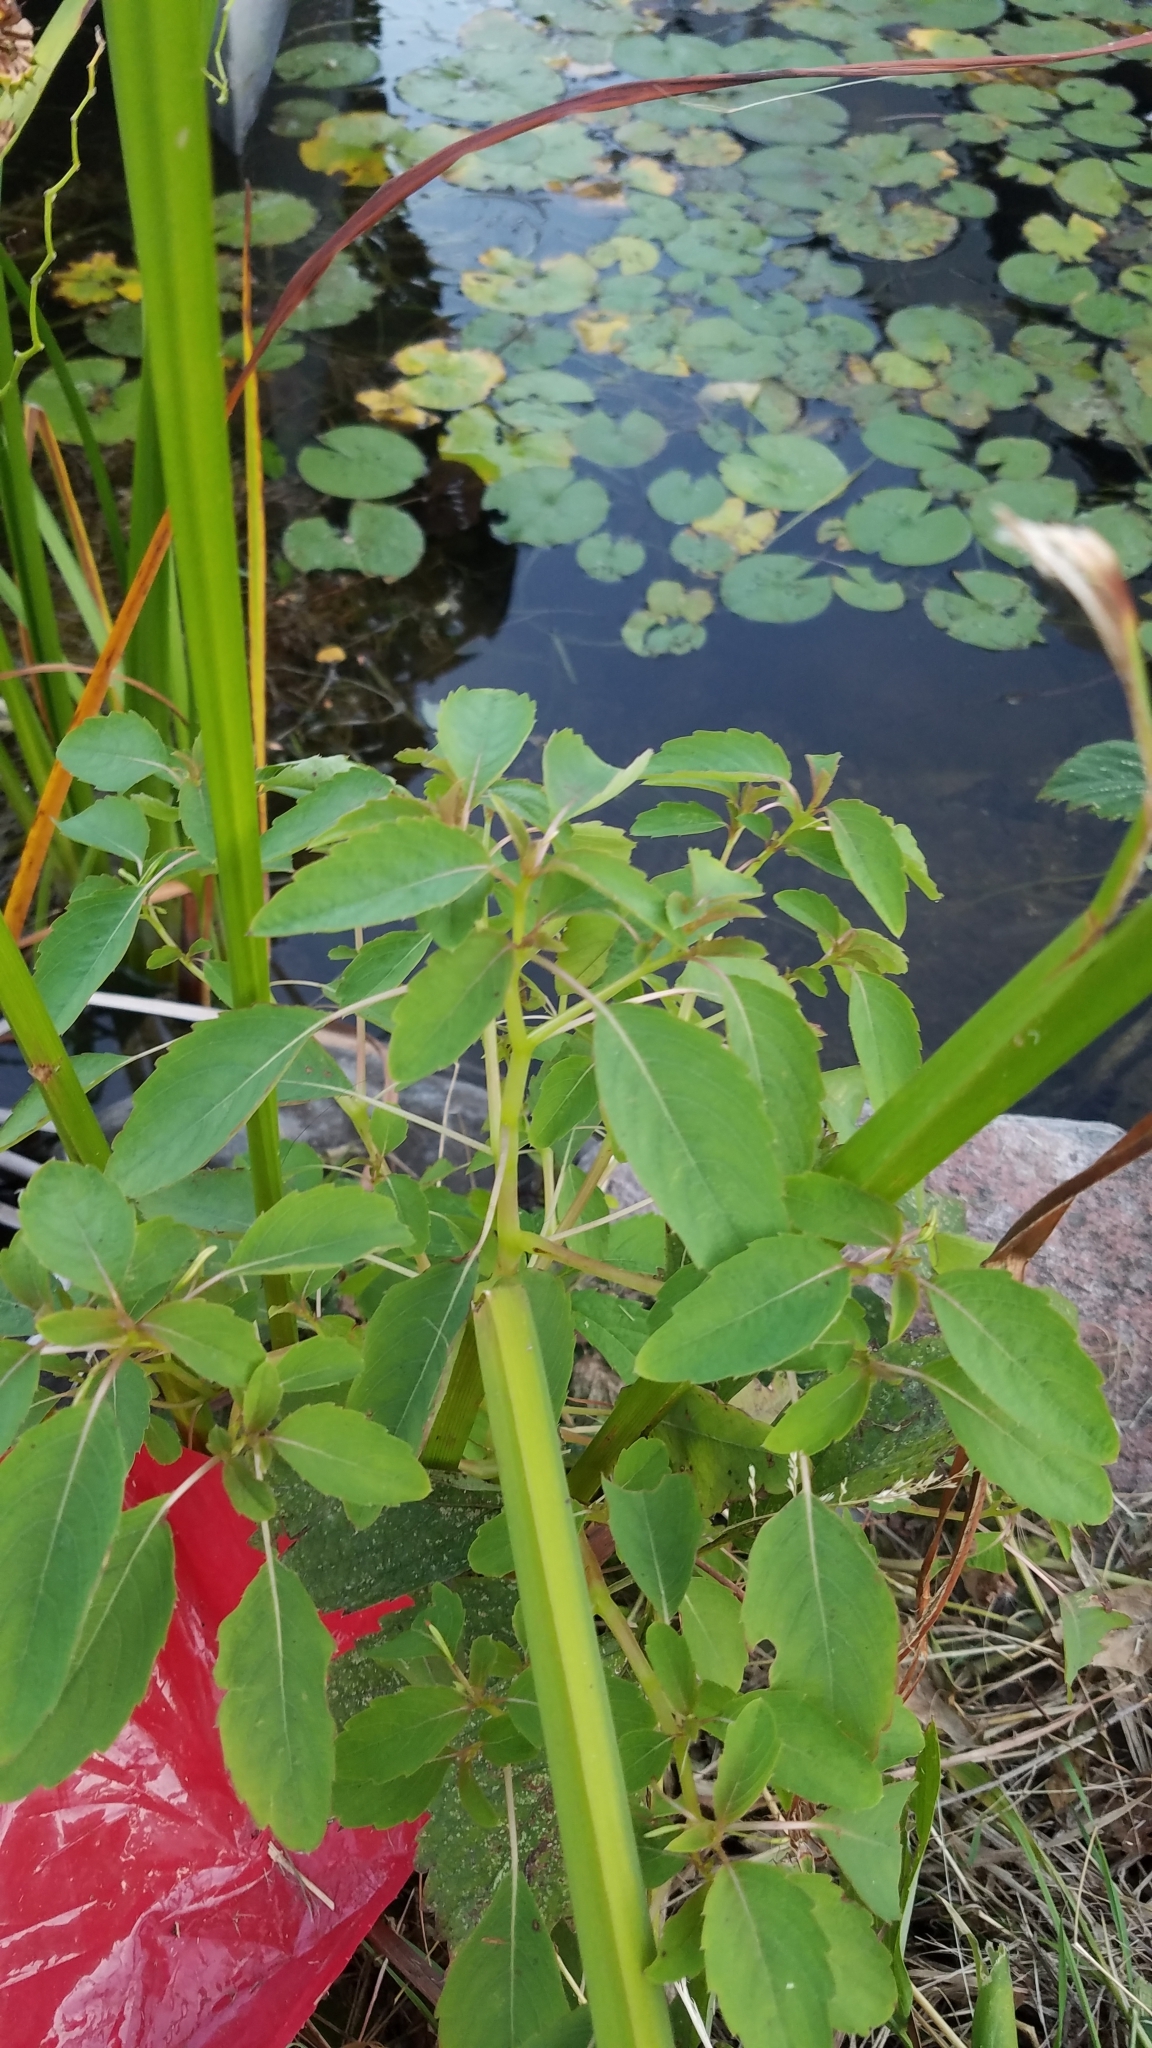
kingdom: Plantae
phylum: Tracheophyta
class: Magnoliopsida
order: Ericales
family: Balsaminaceae
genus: Impatiens
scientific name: Impatiens capensis
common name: Orange balsam
